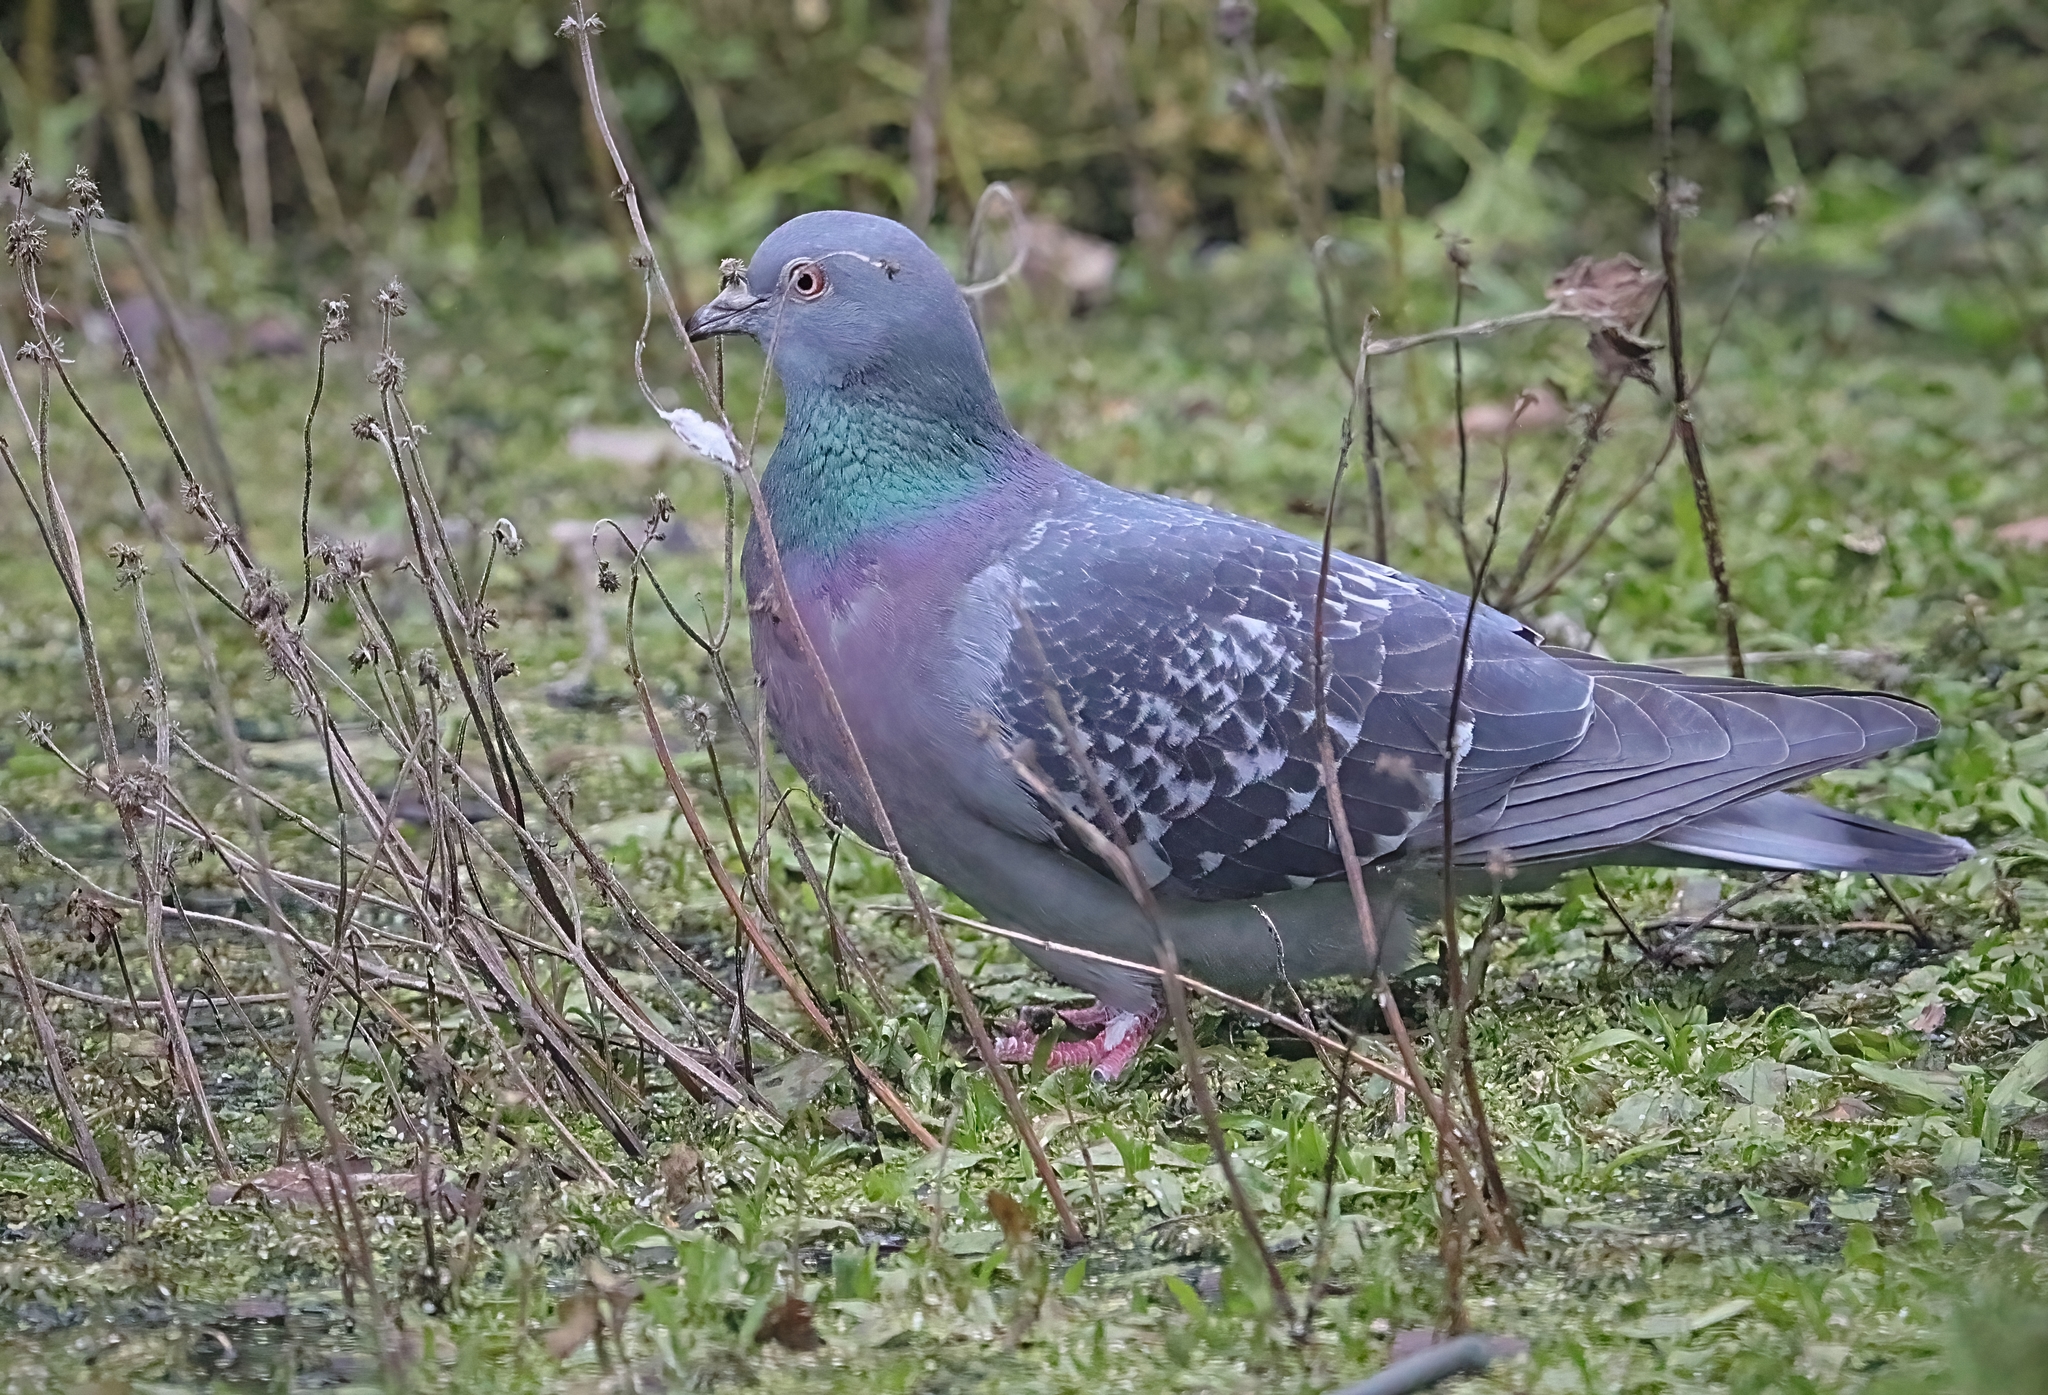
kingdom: Animalia
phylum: Chordata
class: Aves
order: Columbiformes
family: Columbidae
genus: Columba
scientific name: Columba livia
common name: Rock pigeon
